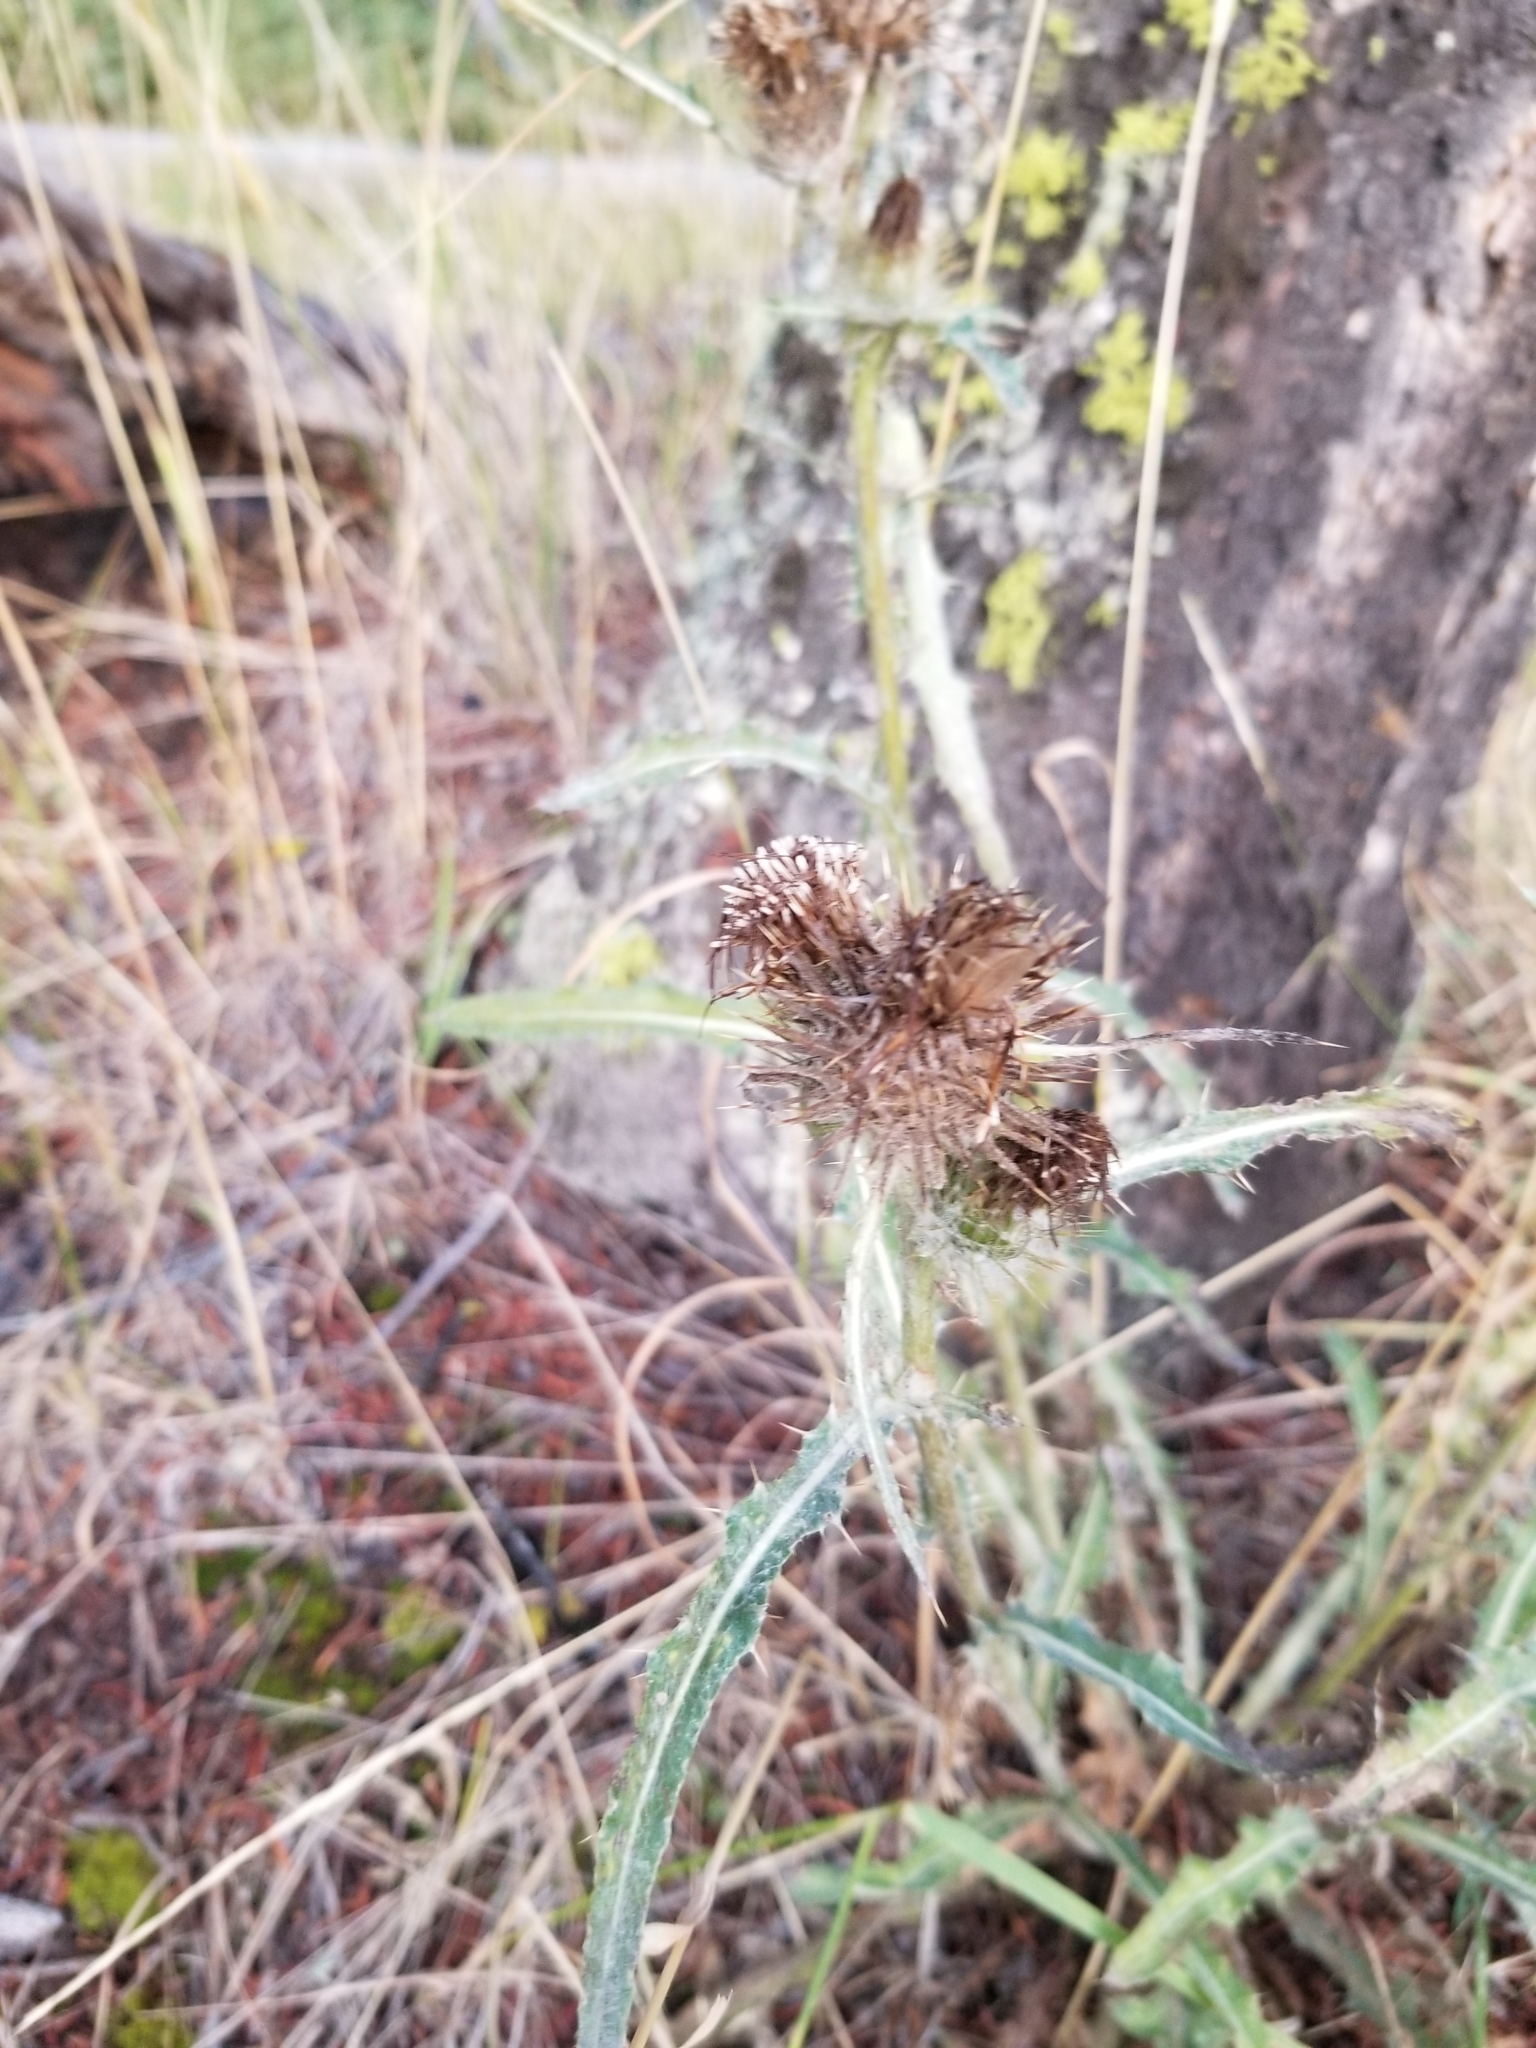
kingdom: Plantae
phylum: Tracheophyta
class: Magnoliopsida
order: Asterales
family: Asteraceae
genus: Cirsium
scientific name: Cirsium hookerianum
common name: Hooker's thistle
